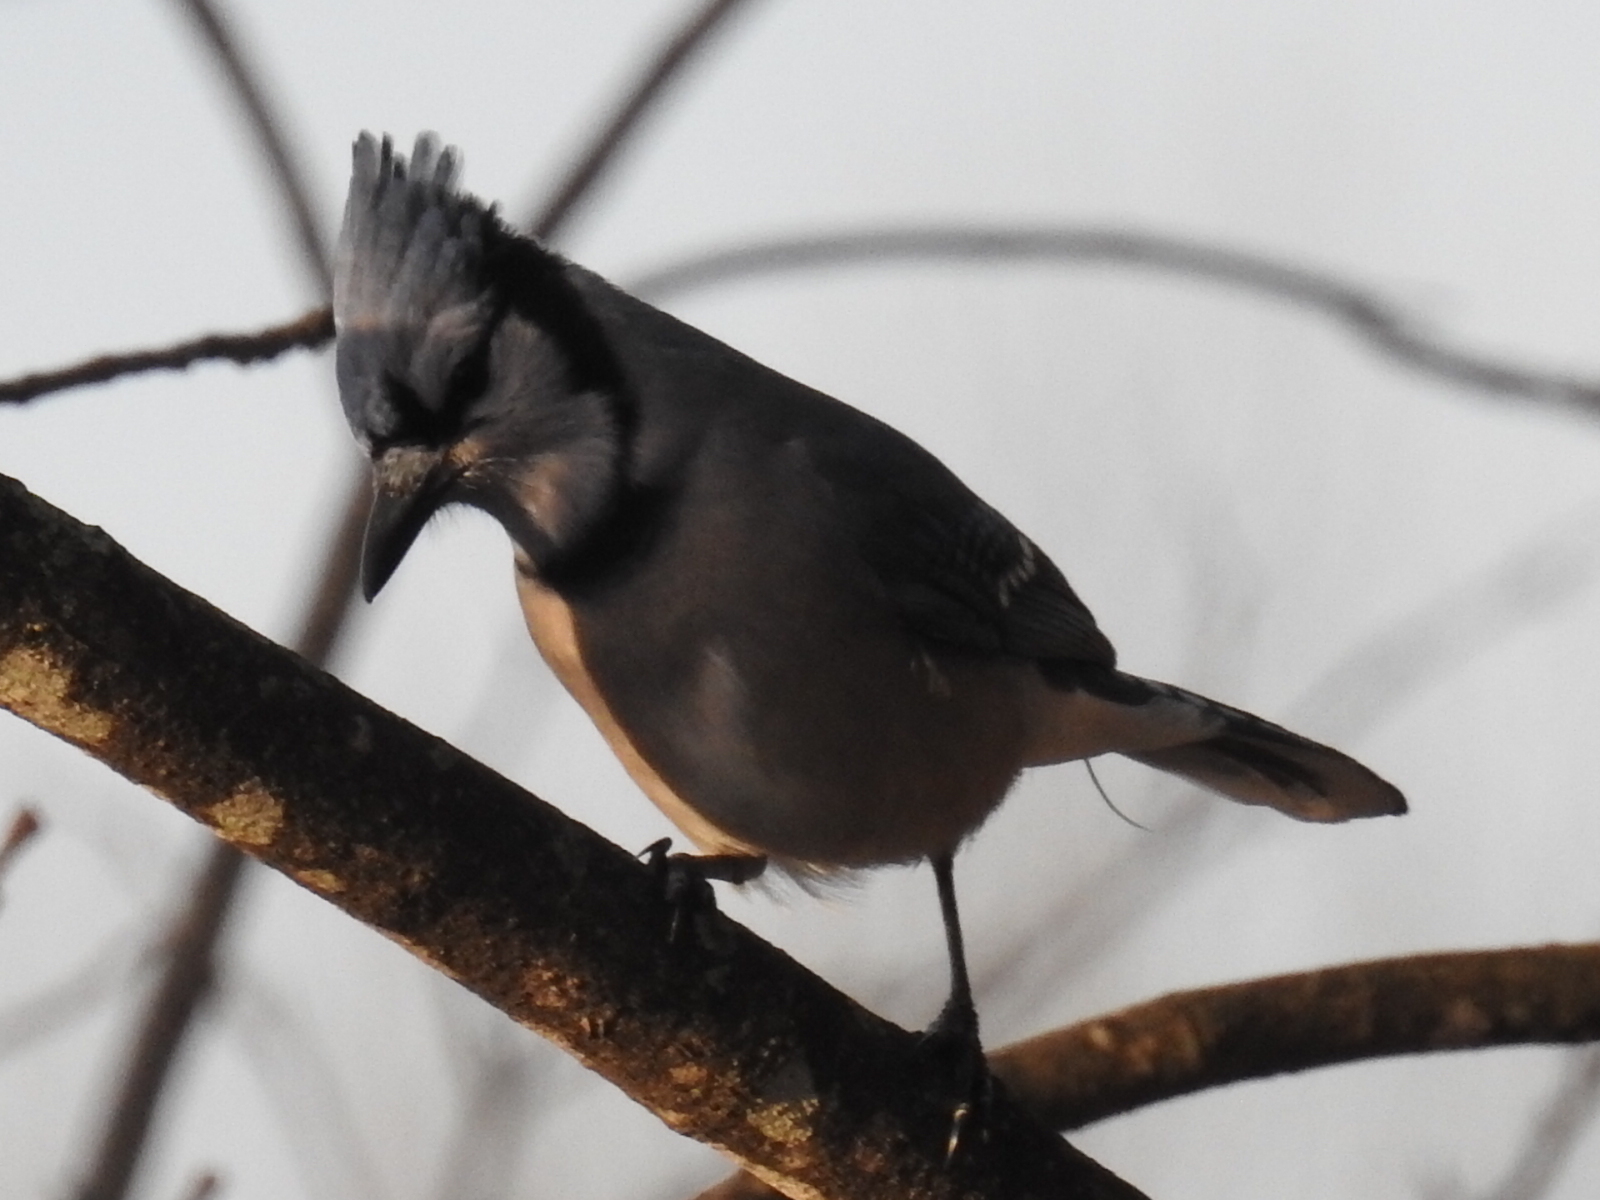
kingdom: Animalia
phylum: Chordata
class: Aves
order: Passeriformes
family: Corvidae
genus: Cyanocitta
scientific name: Cyanocitta cristata
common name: Blue jay
